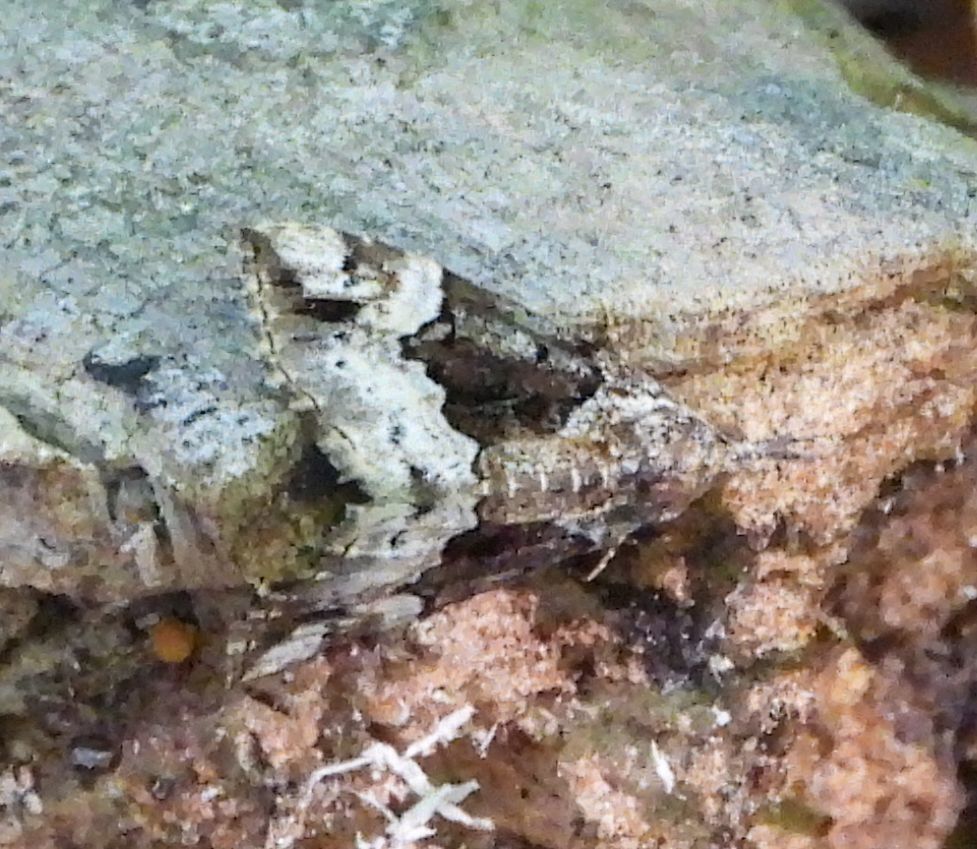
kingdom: Animalia
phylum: Arthropoda
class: Insecta
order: Lepidoptera
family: Erebidae
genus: Hypena
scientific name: Hypena palparia
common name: Mottled bomolocha moth
